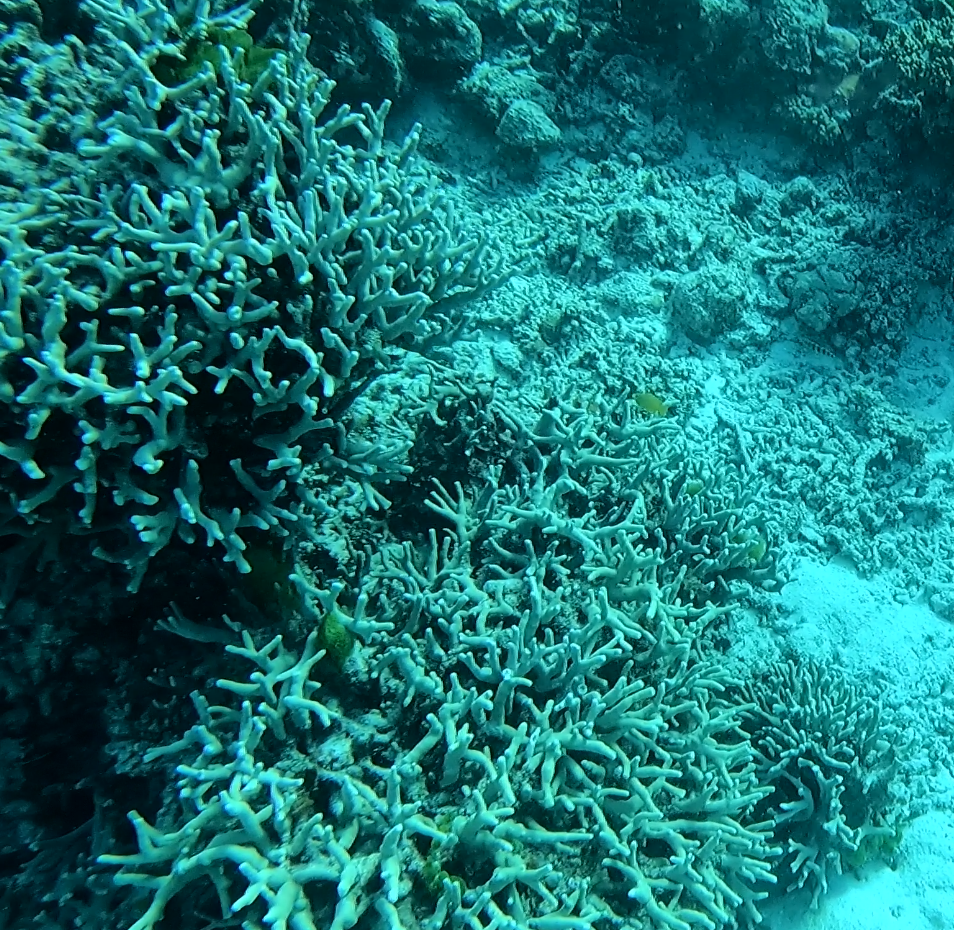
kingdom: Animalia
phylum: Cnidaria
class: Anthozoa
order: Scleractinia
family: Poritidae
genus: Porites
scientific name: Porites cylindrica
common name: Hump coral
